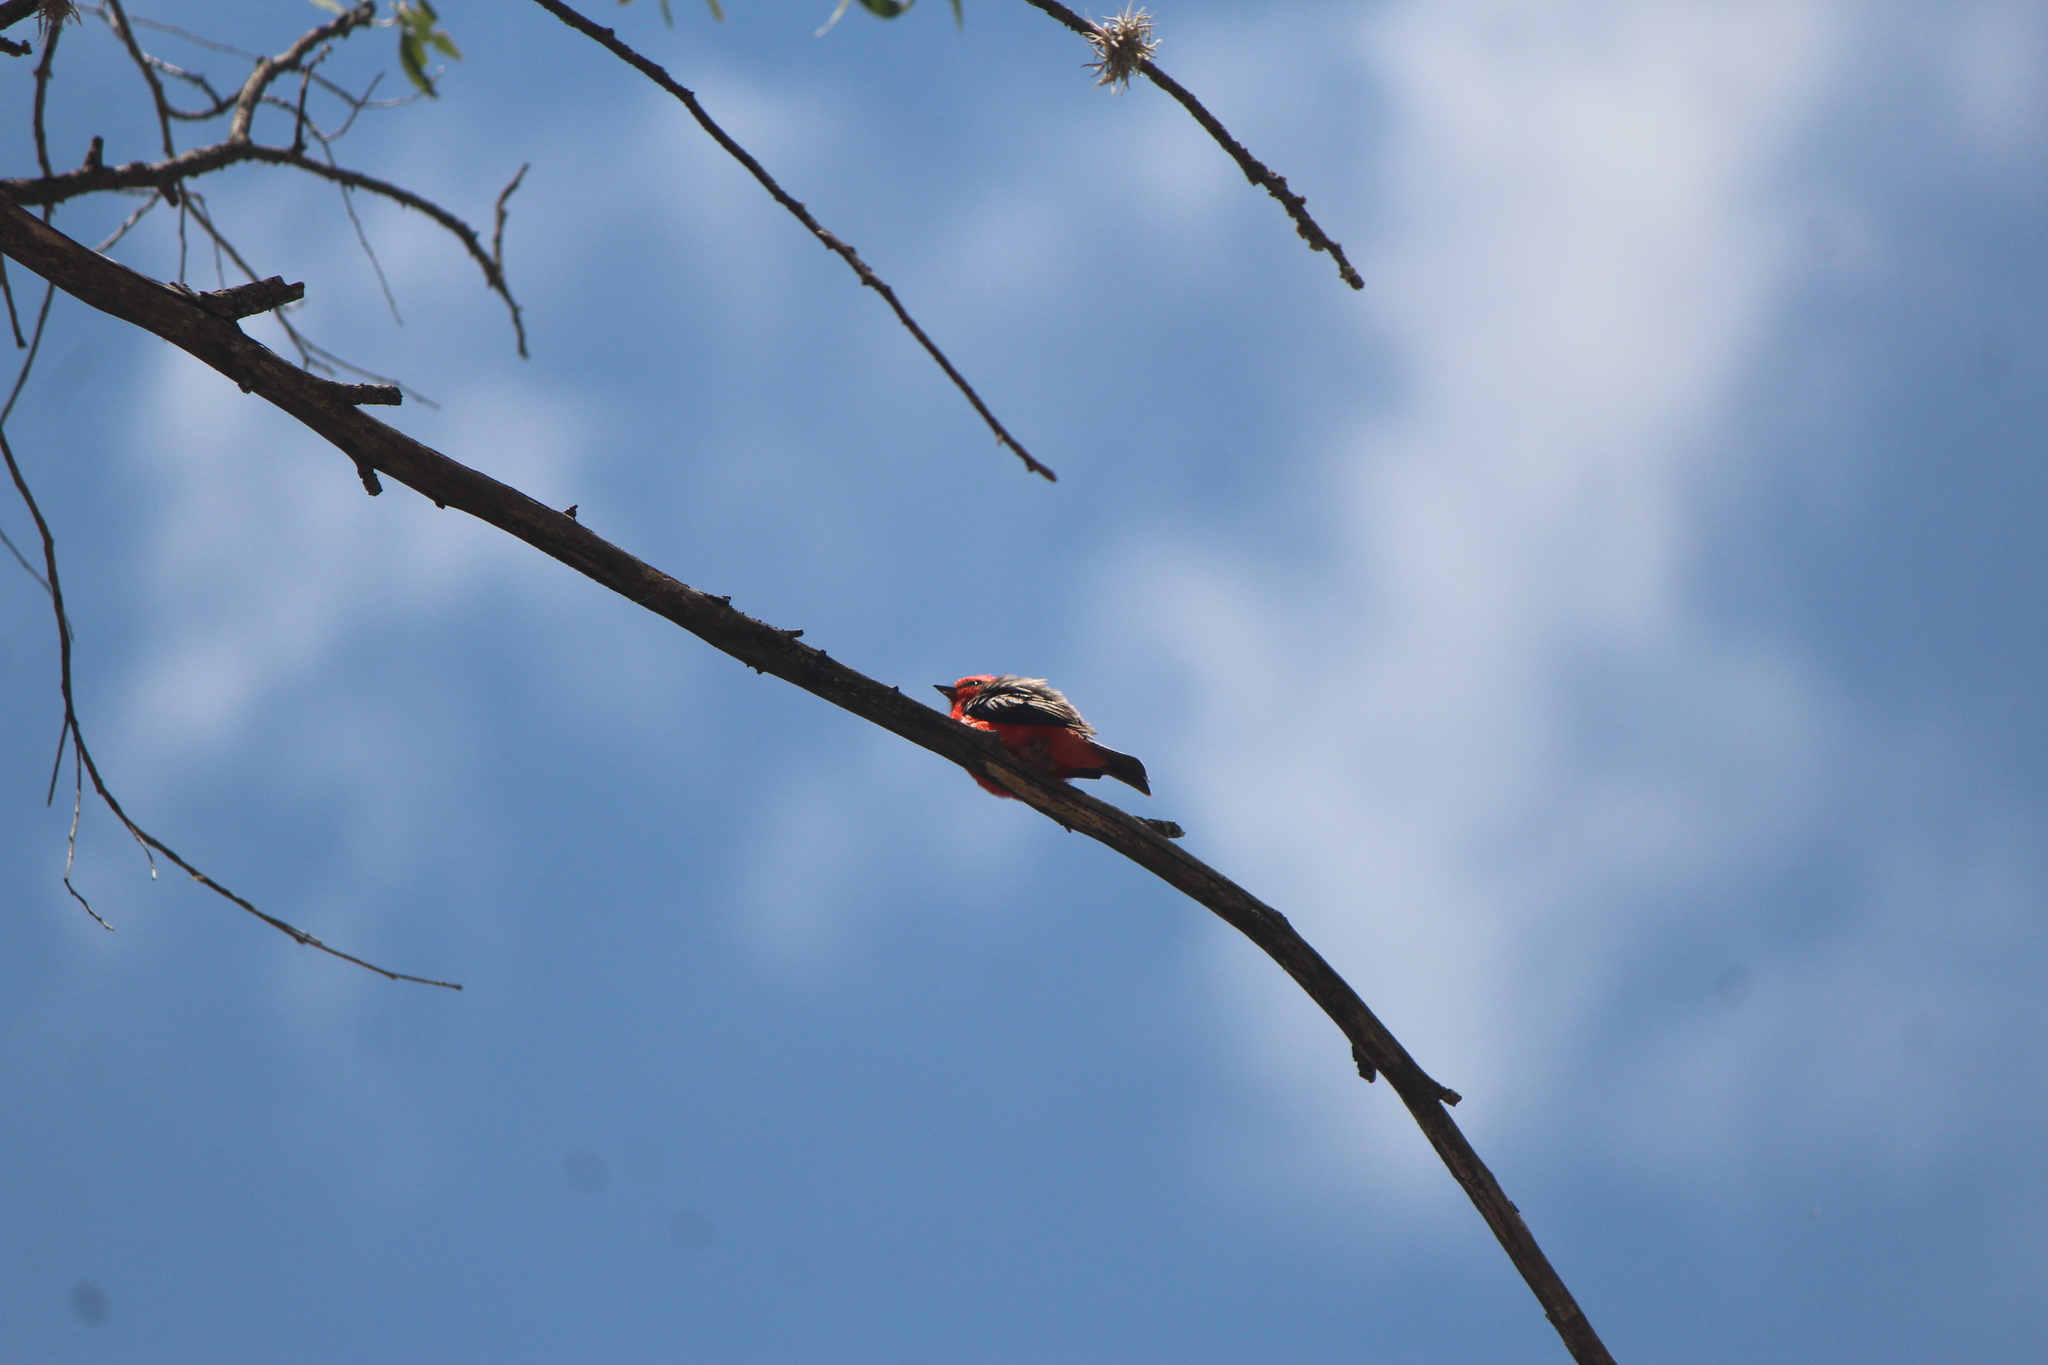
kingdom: Animalia
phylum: Chordata
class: Aves
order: Passeriformes
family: Tyrannidae
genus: Pyrocephalus
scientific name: Pyrocephalus rubinus
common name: Vermilion flycatcher
